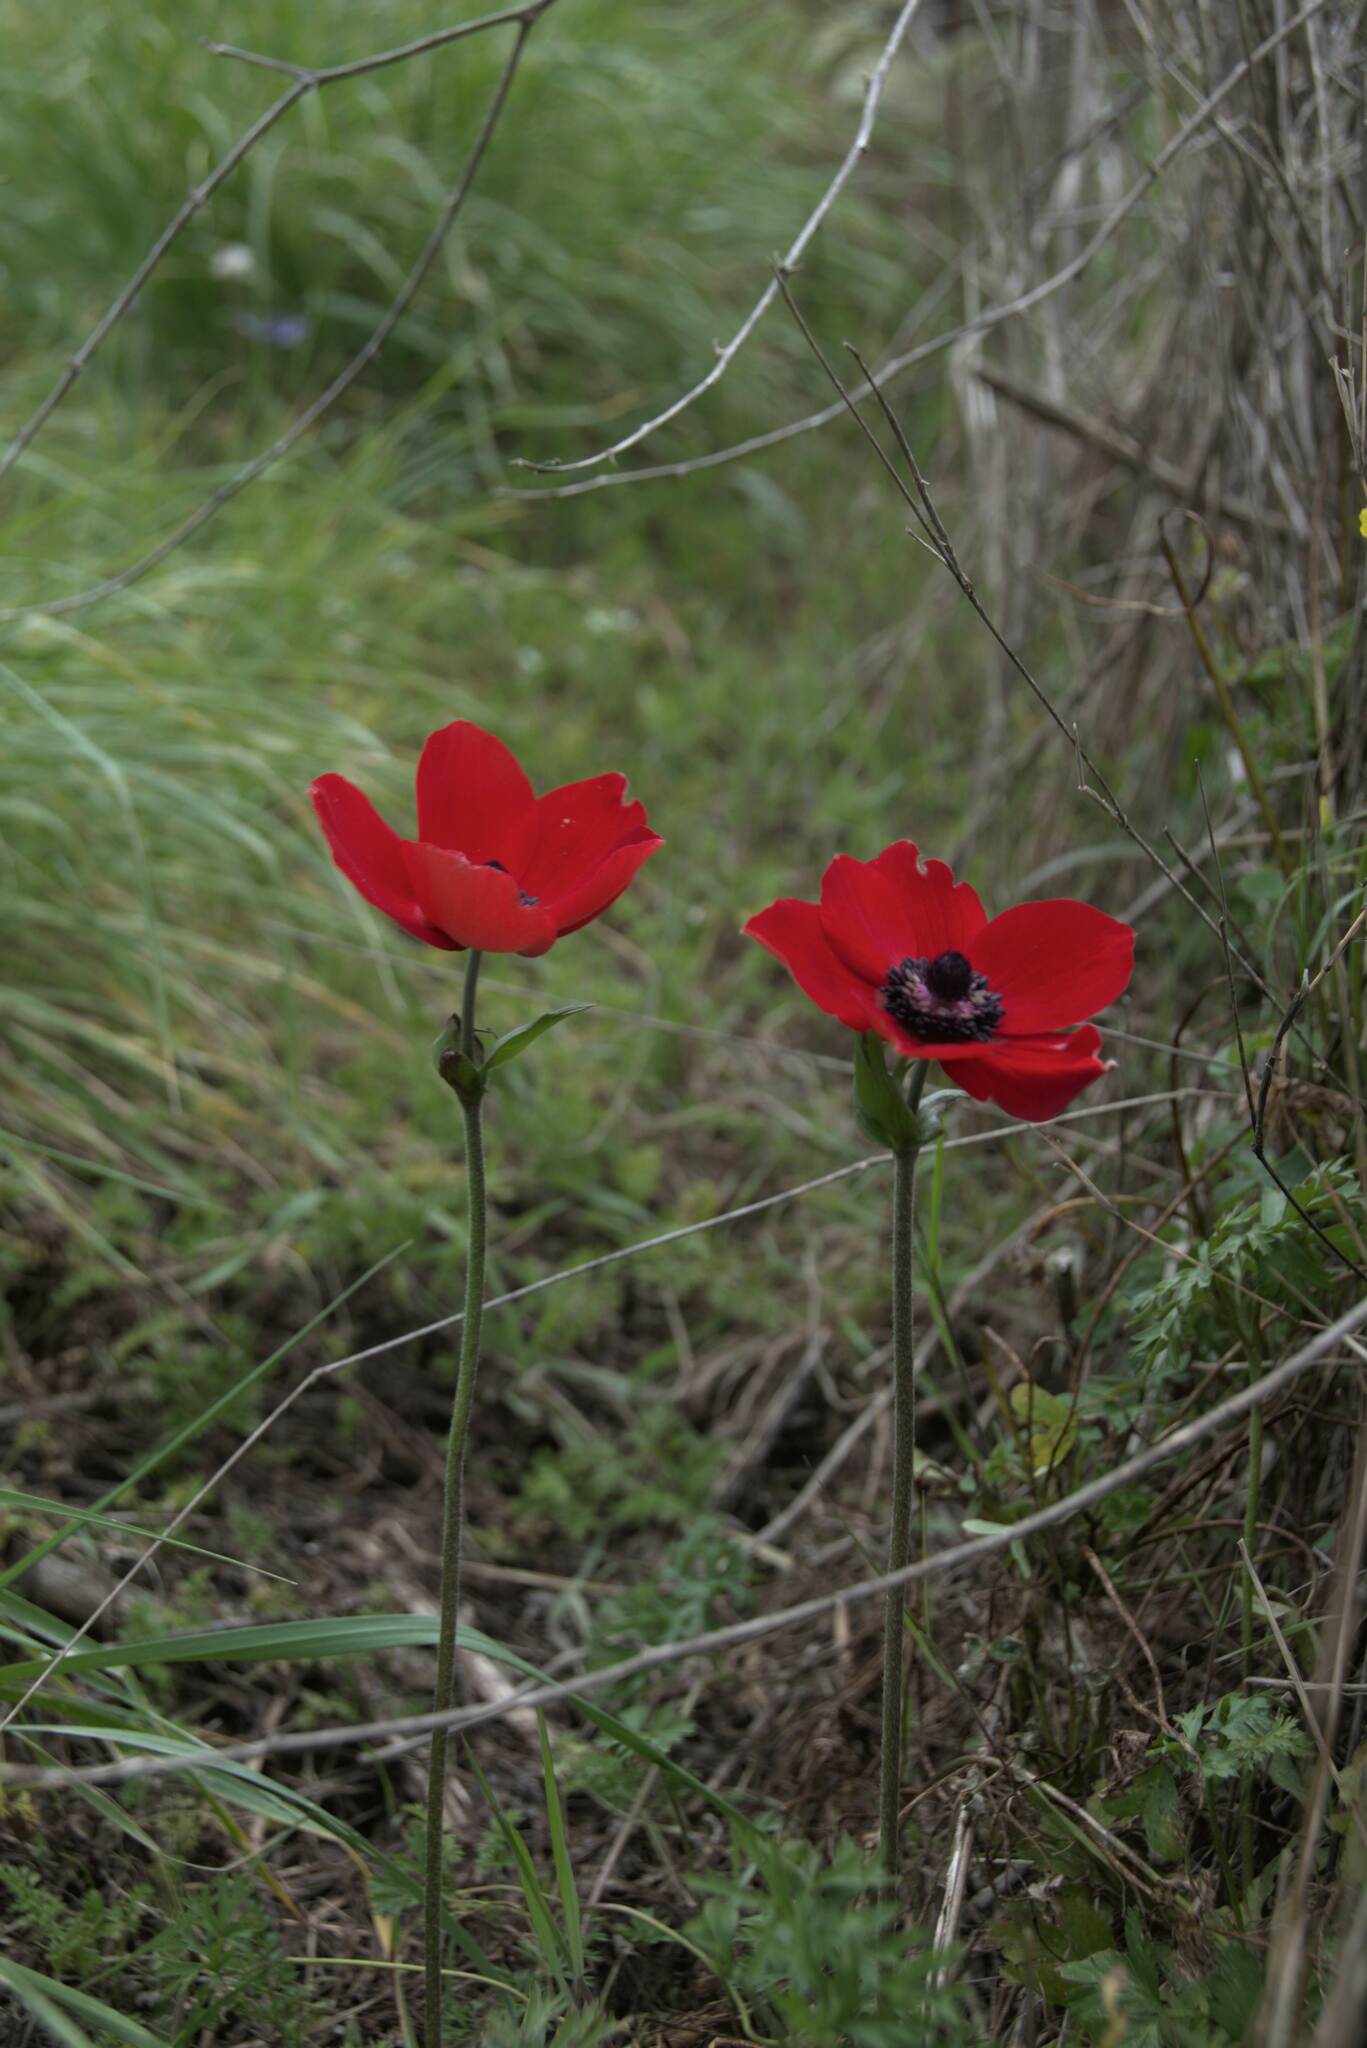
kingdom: Plantae
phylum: Tracheophyta
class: Magnoliopsida
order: Ranunculales
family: Ranunculaceae
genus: Anemone
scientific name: Anemone coronaria
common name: Poppy anemone
